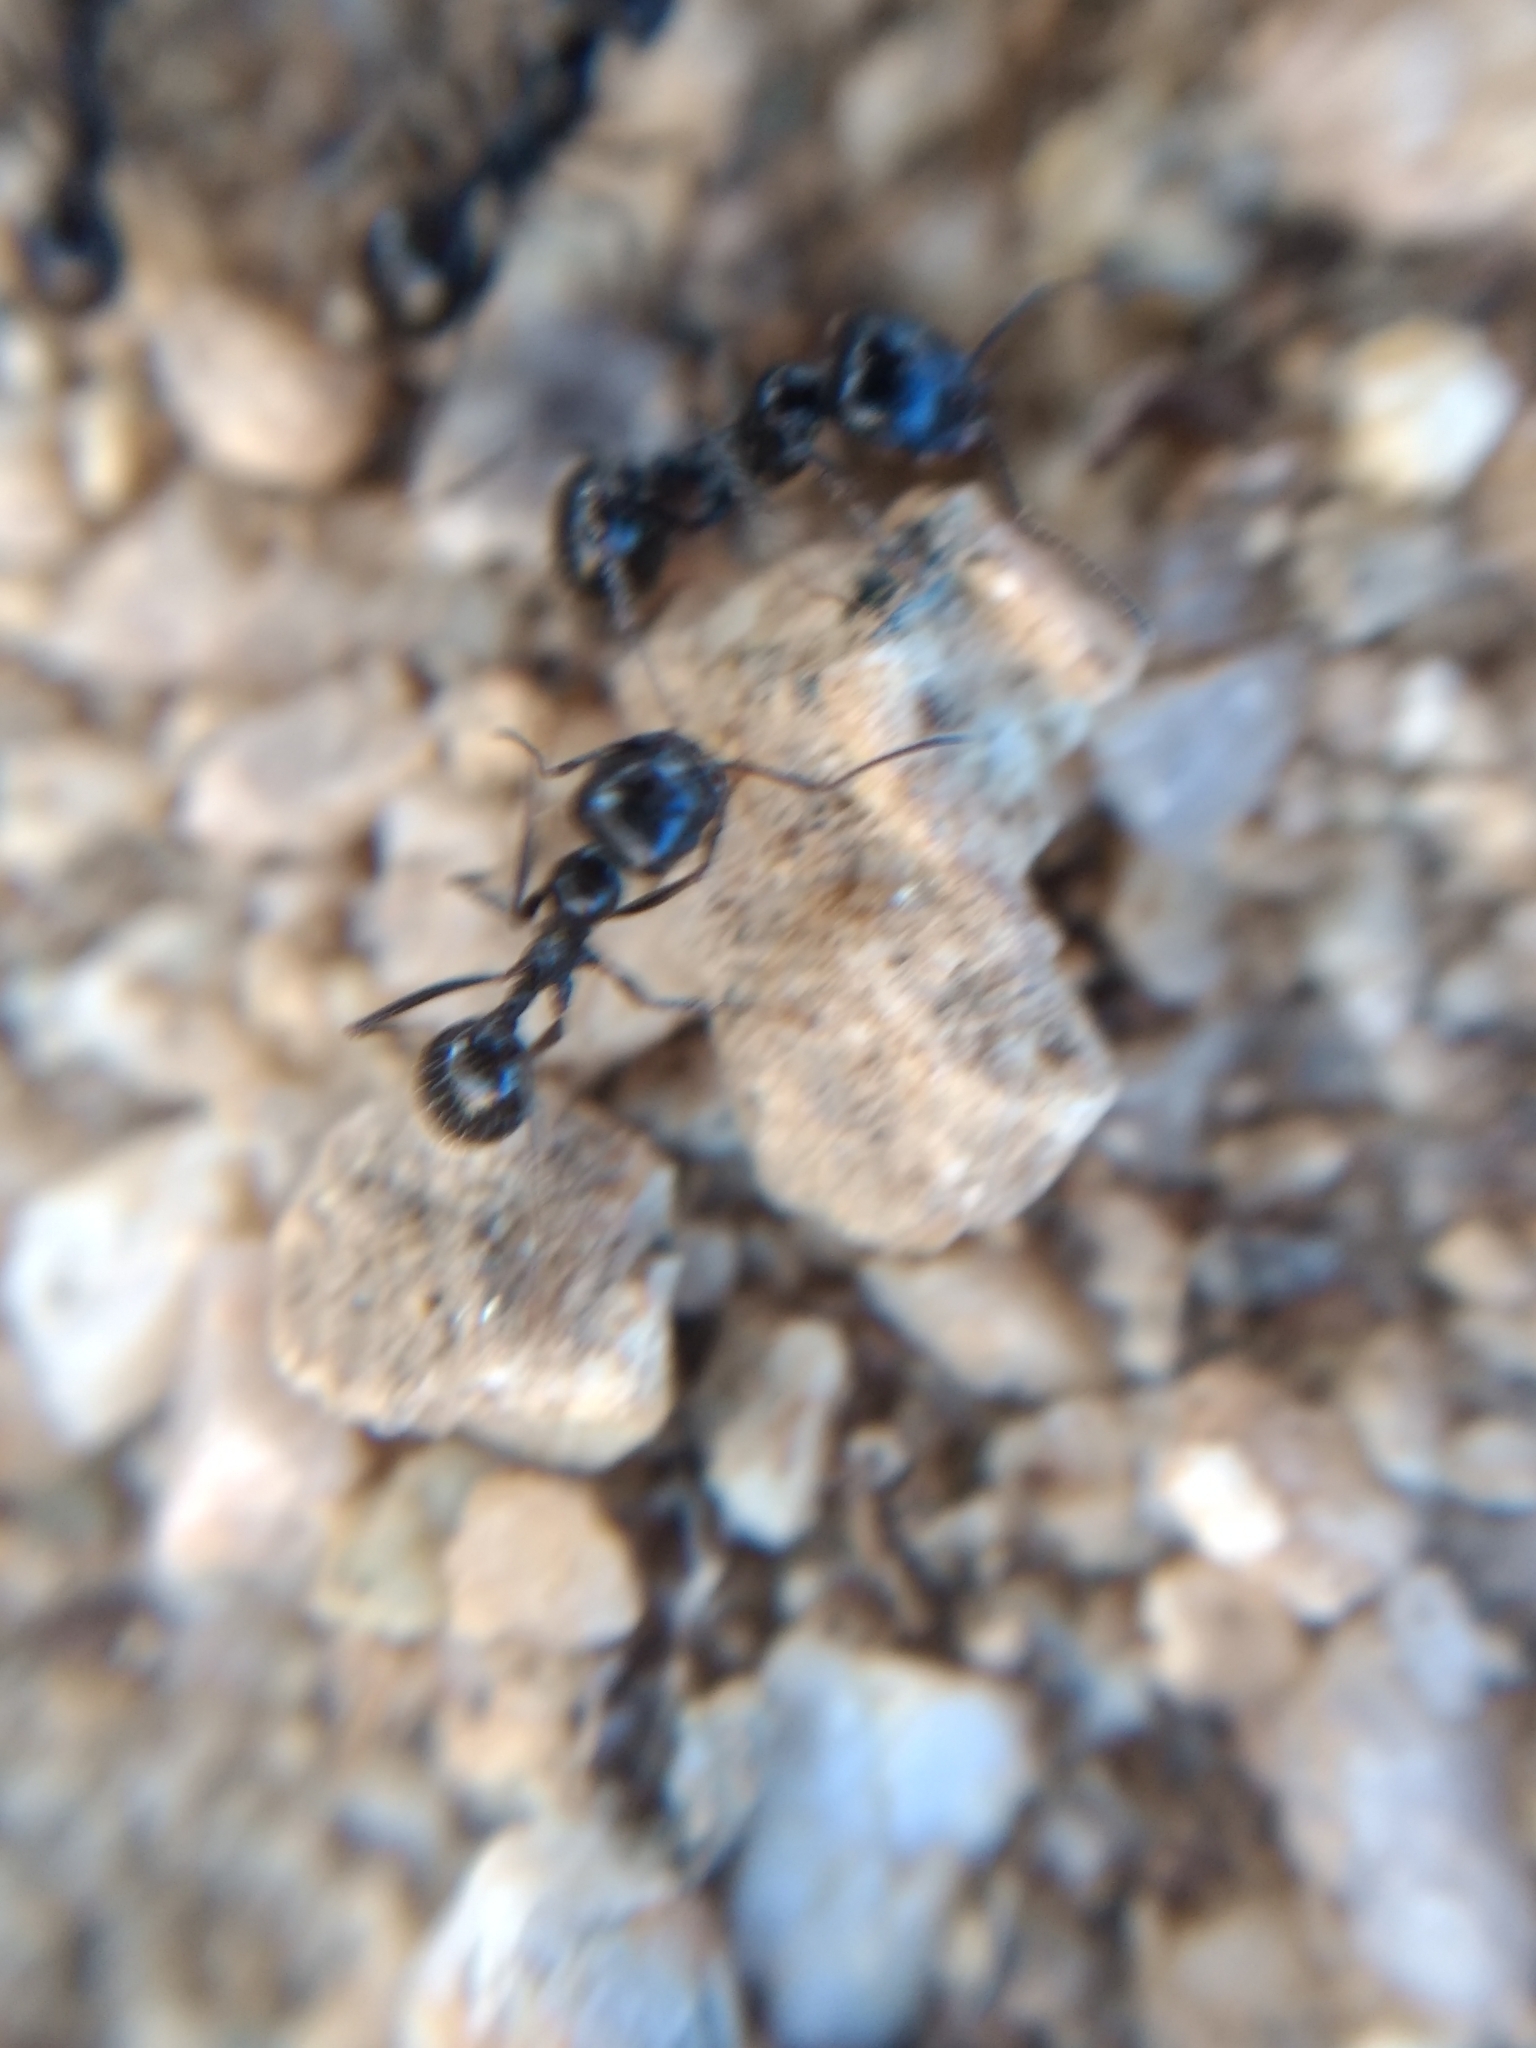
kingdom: Animalia
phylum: Arthropoda
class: Insecta
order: Hymenoptera
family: Formicidae
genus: Messor
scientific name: Messor pergandei
